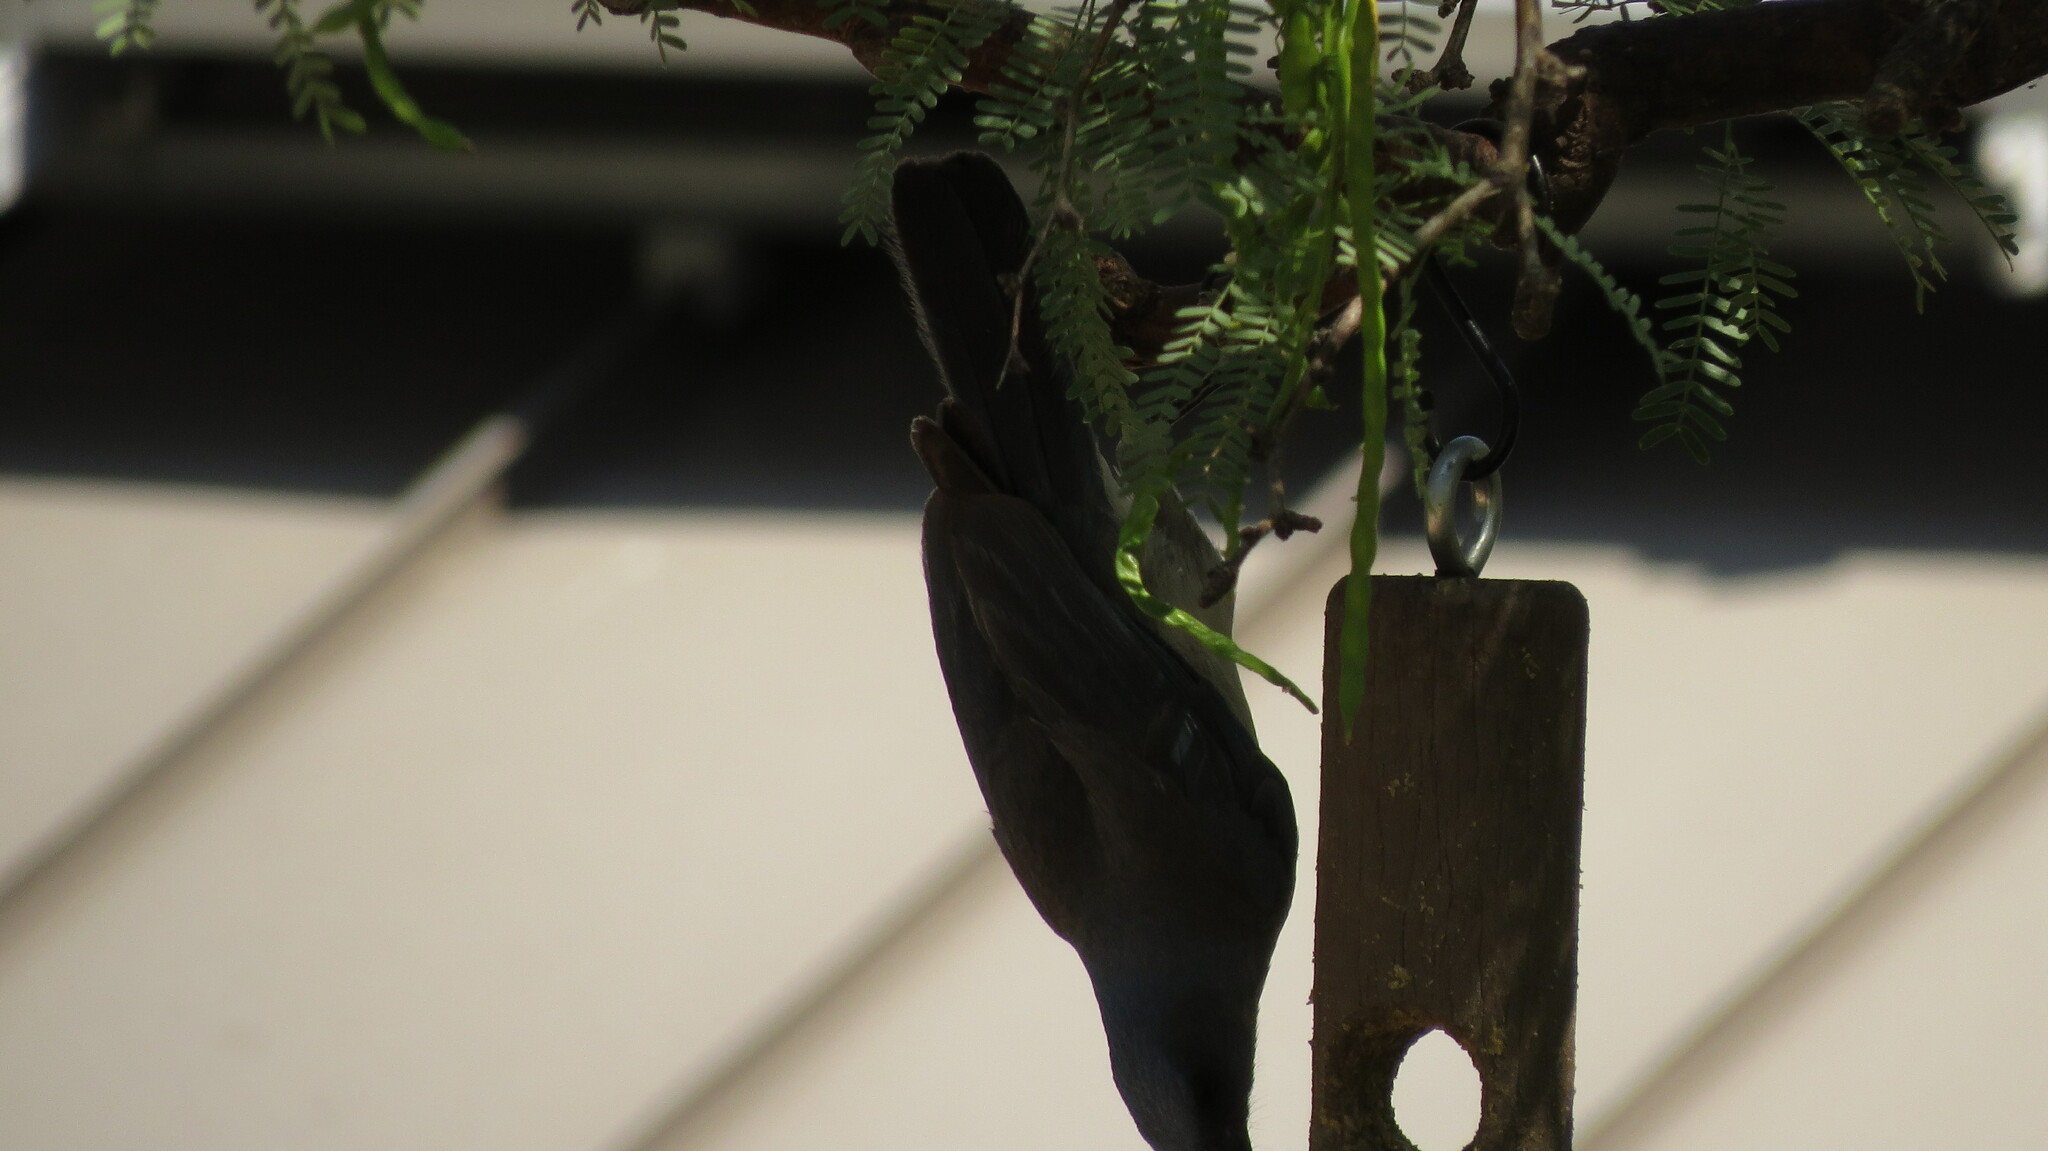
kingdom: Animalia
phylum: Chordata
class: Aves
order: Passeriformes
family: Corvidae
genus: Aphelocoma
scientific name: Aphelocoma wollweberi
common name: Mexican jay
